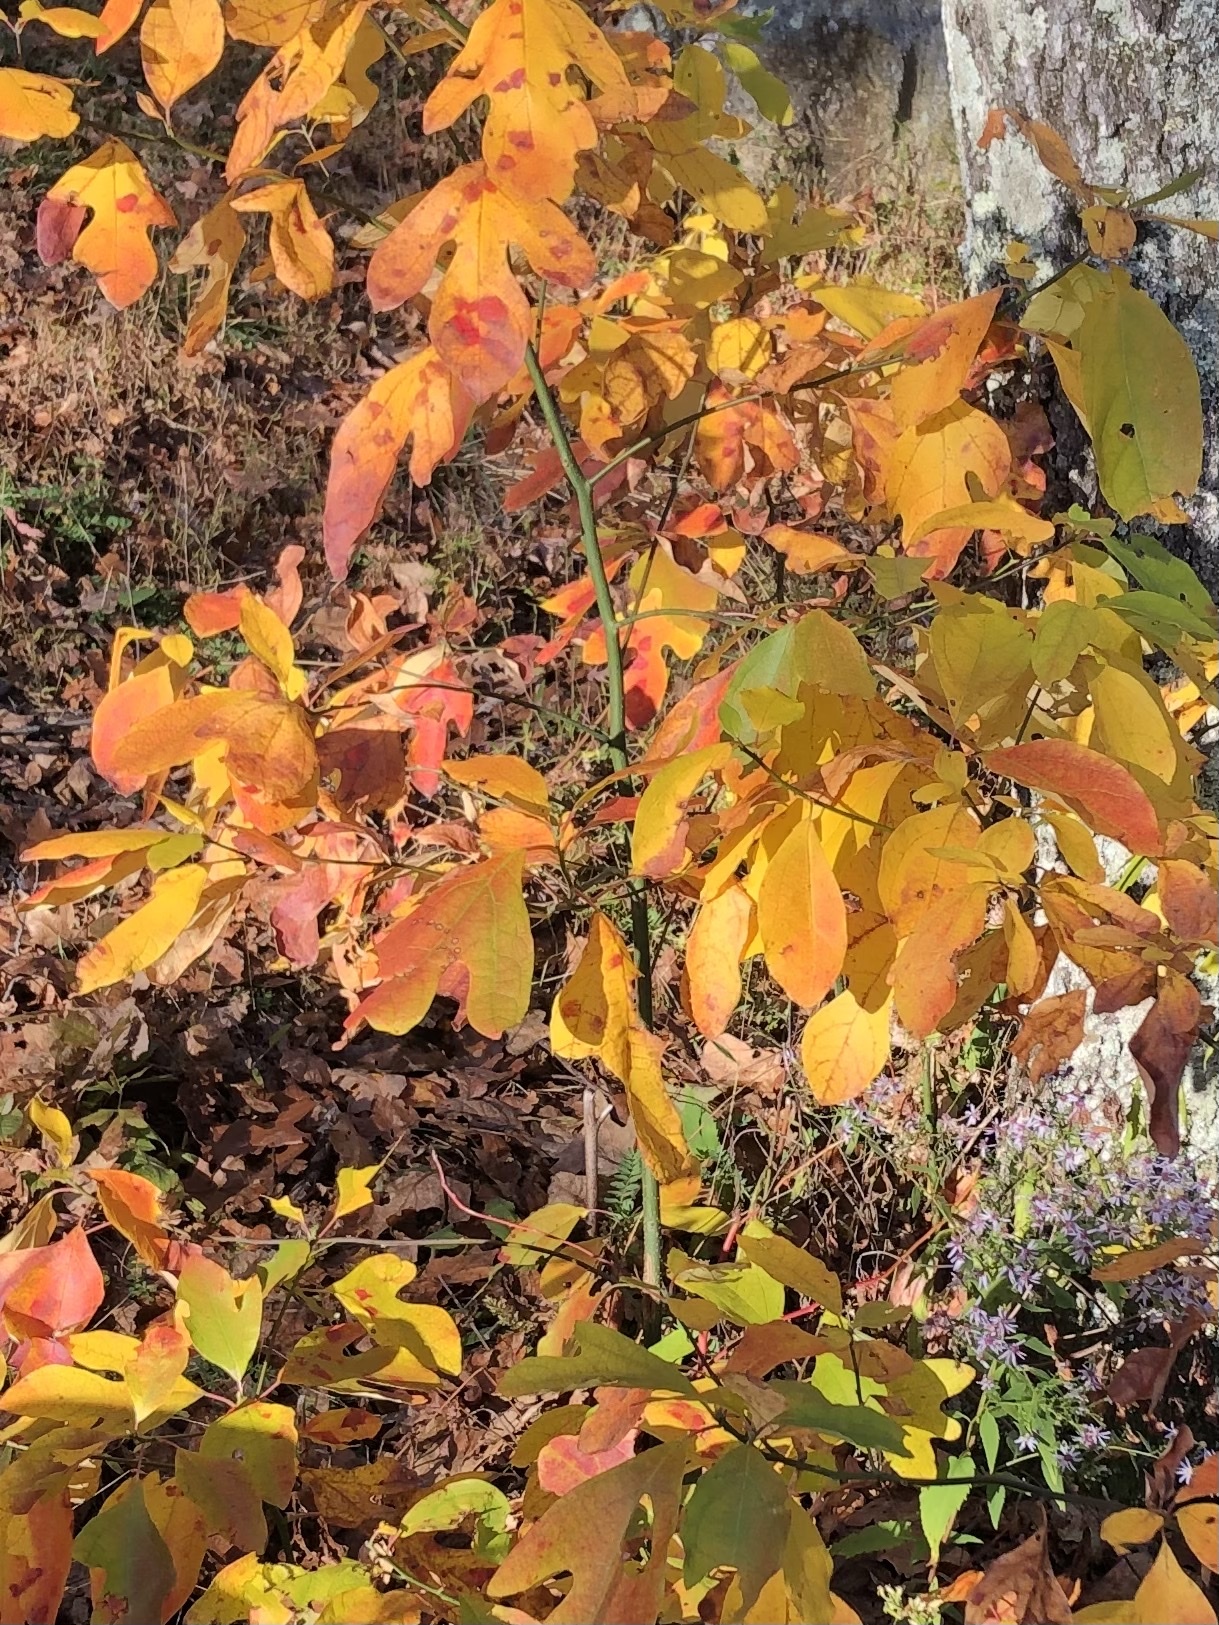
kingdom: Plantae
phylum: Tracheophyta
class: Magnoliopsida
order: Laurales
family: Lauraceae
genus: Sassafras
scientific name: Sassafras albidum
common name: Sassafras
